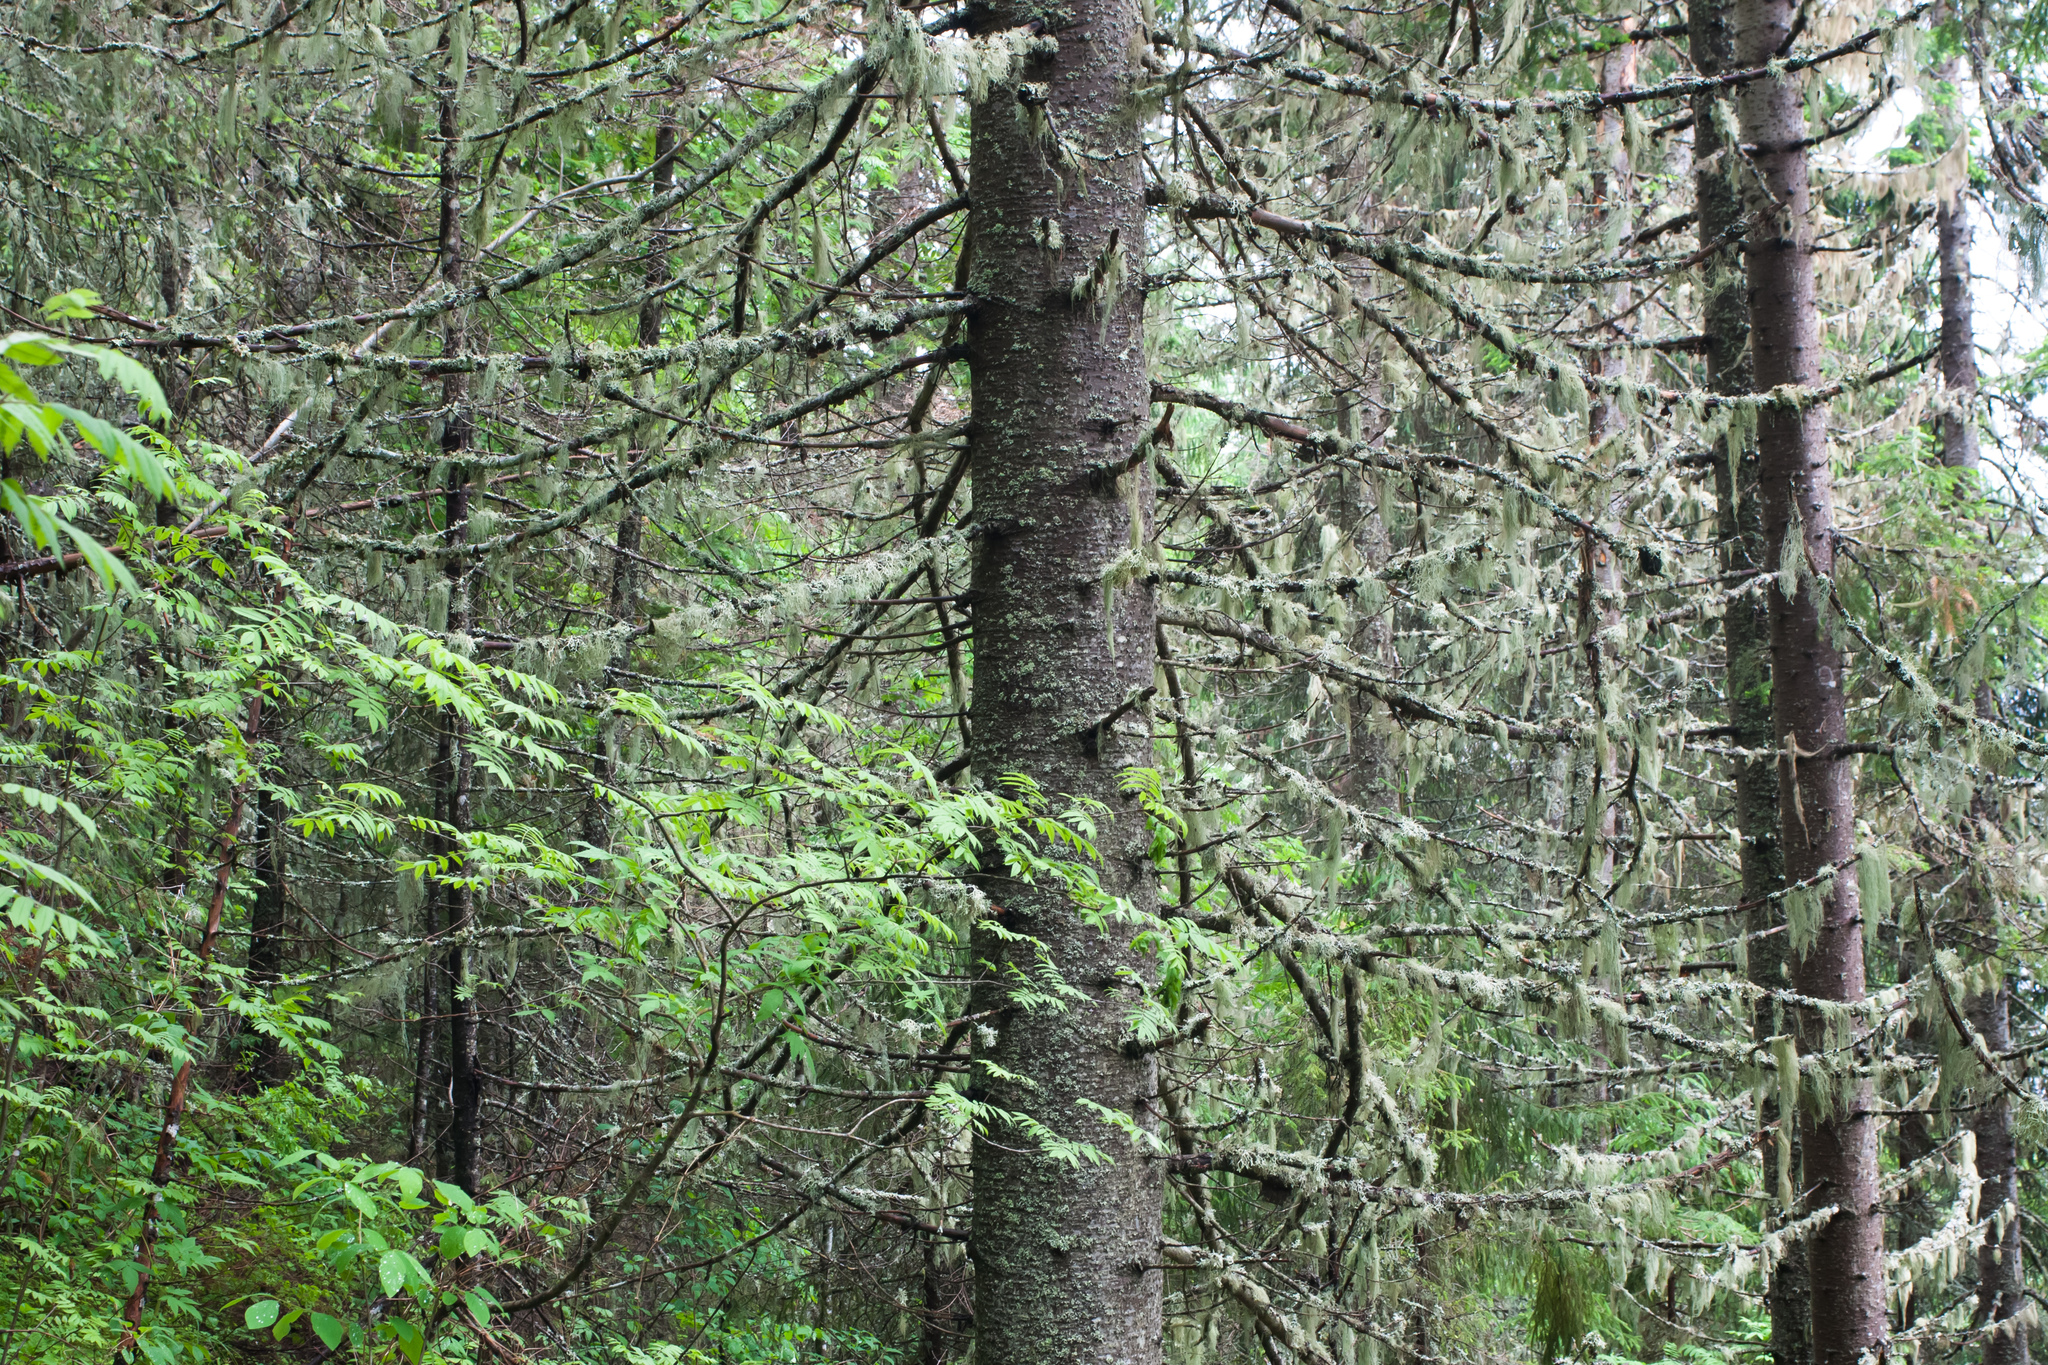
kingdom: Plantae
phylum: Tracheophyta
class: Pinopsida
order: Pinales
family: Pinaceae
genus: Abies
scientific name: Abies sibirica
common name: Siberian fir
